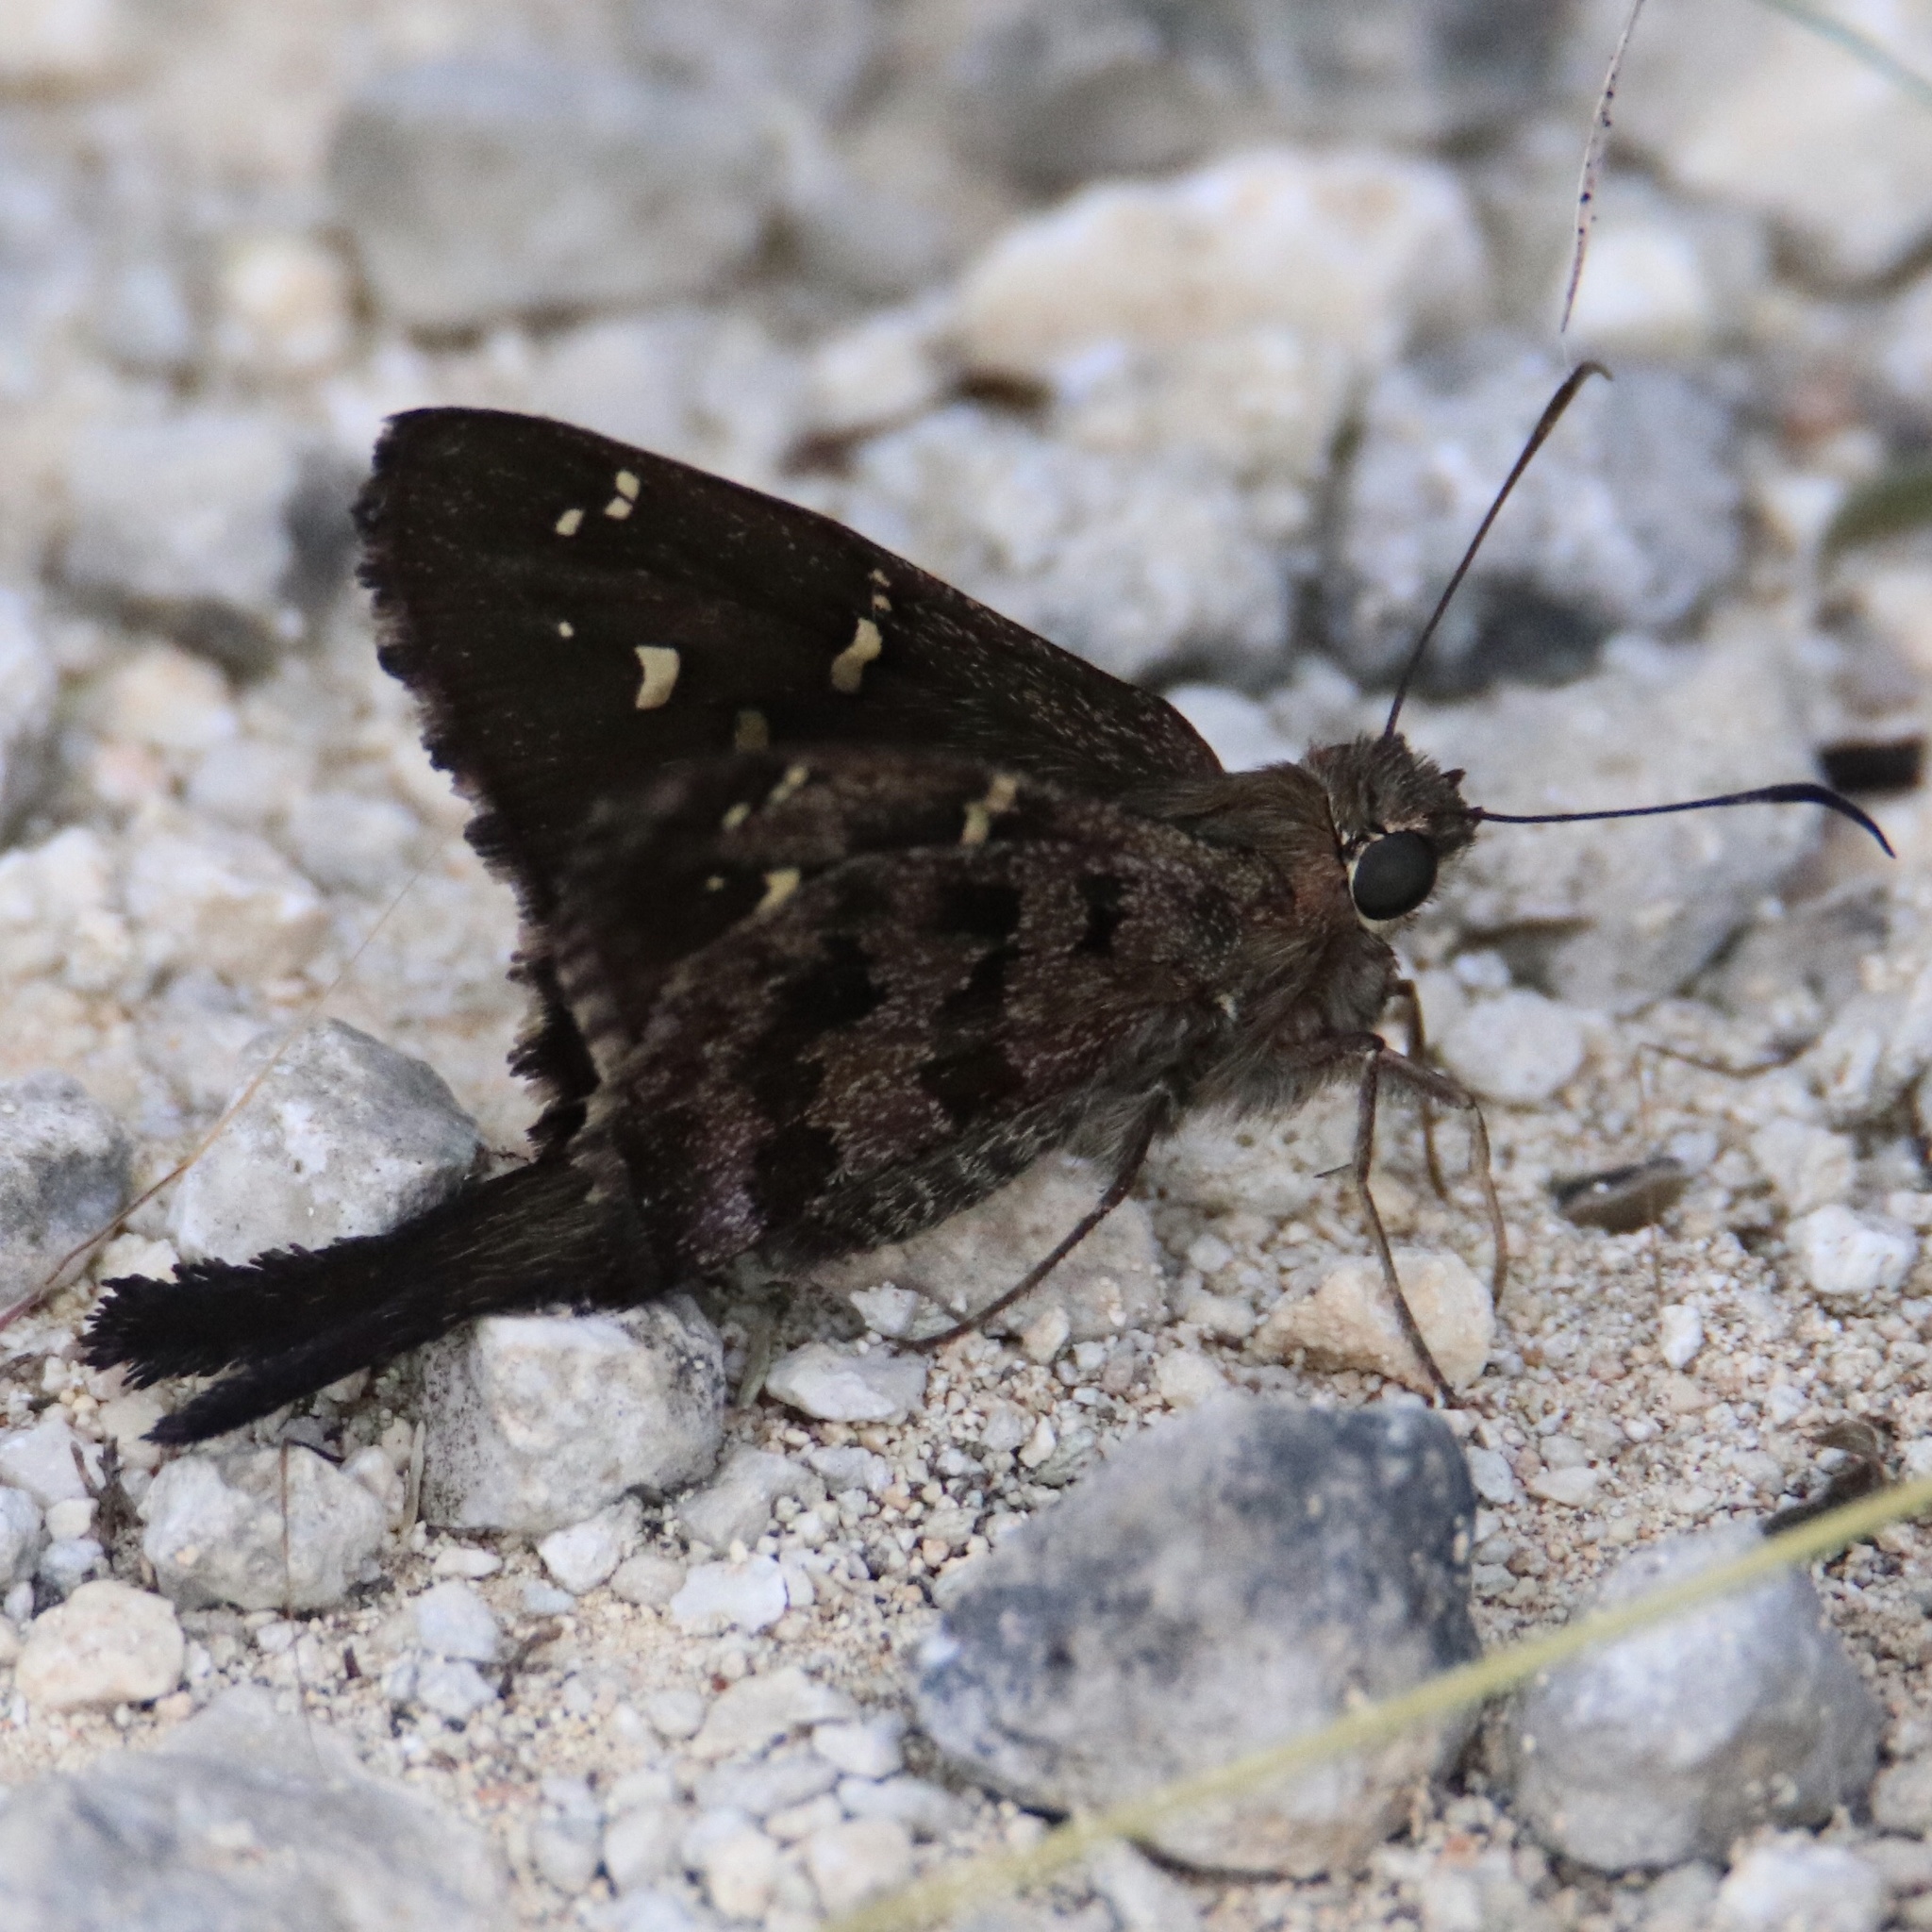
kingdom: Animalia
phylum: Arthropoda
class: Insecta
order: Lepidoptera
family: Hesperiidae
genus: Thorybes
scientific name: Thorybes
